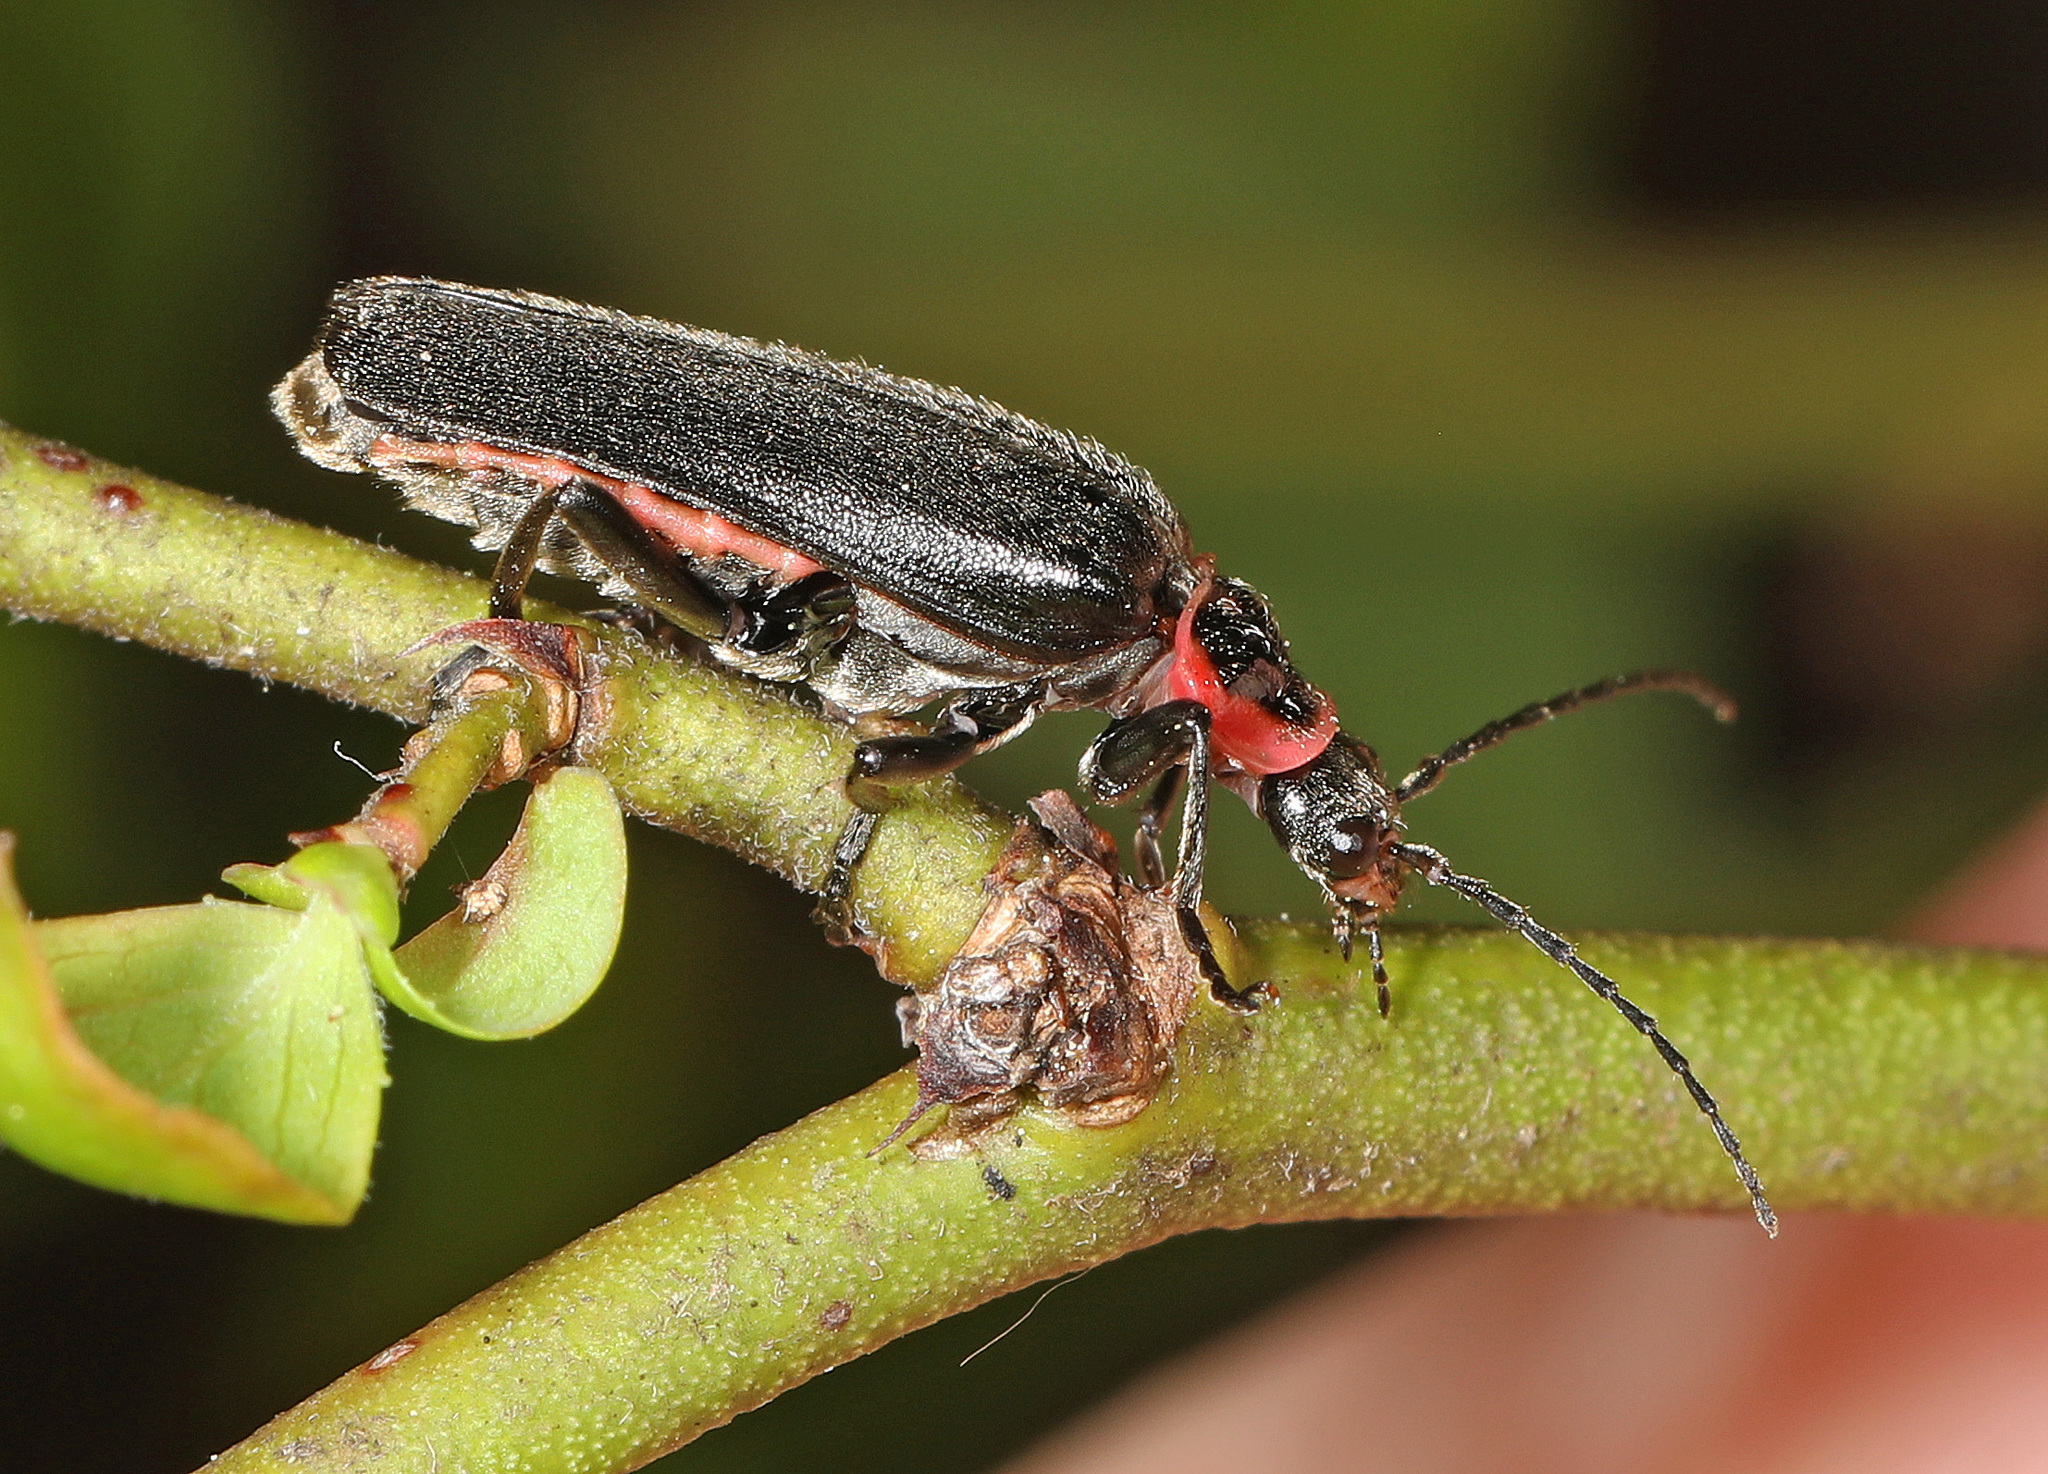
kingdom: Animalia
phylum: Arthropoda
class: Insecta
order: Coleoptera
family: Cantharidae
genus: Atalantycha
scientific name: Atalantycha neglecta
